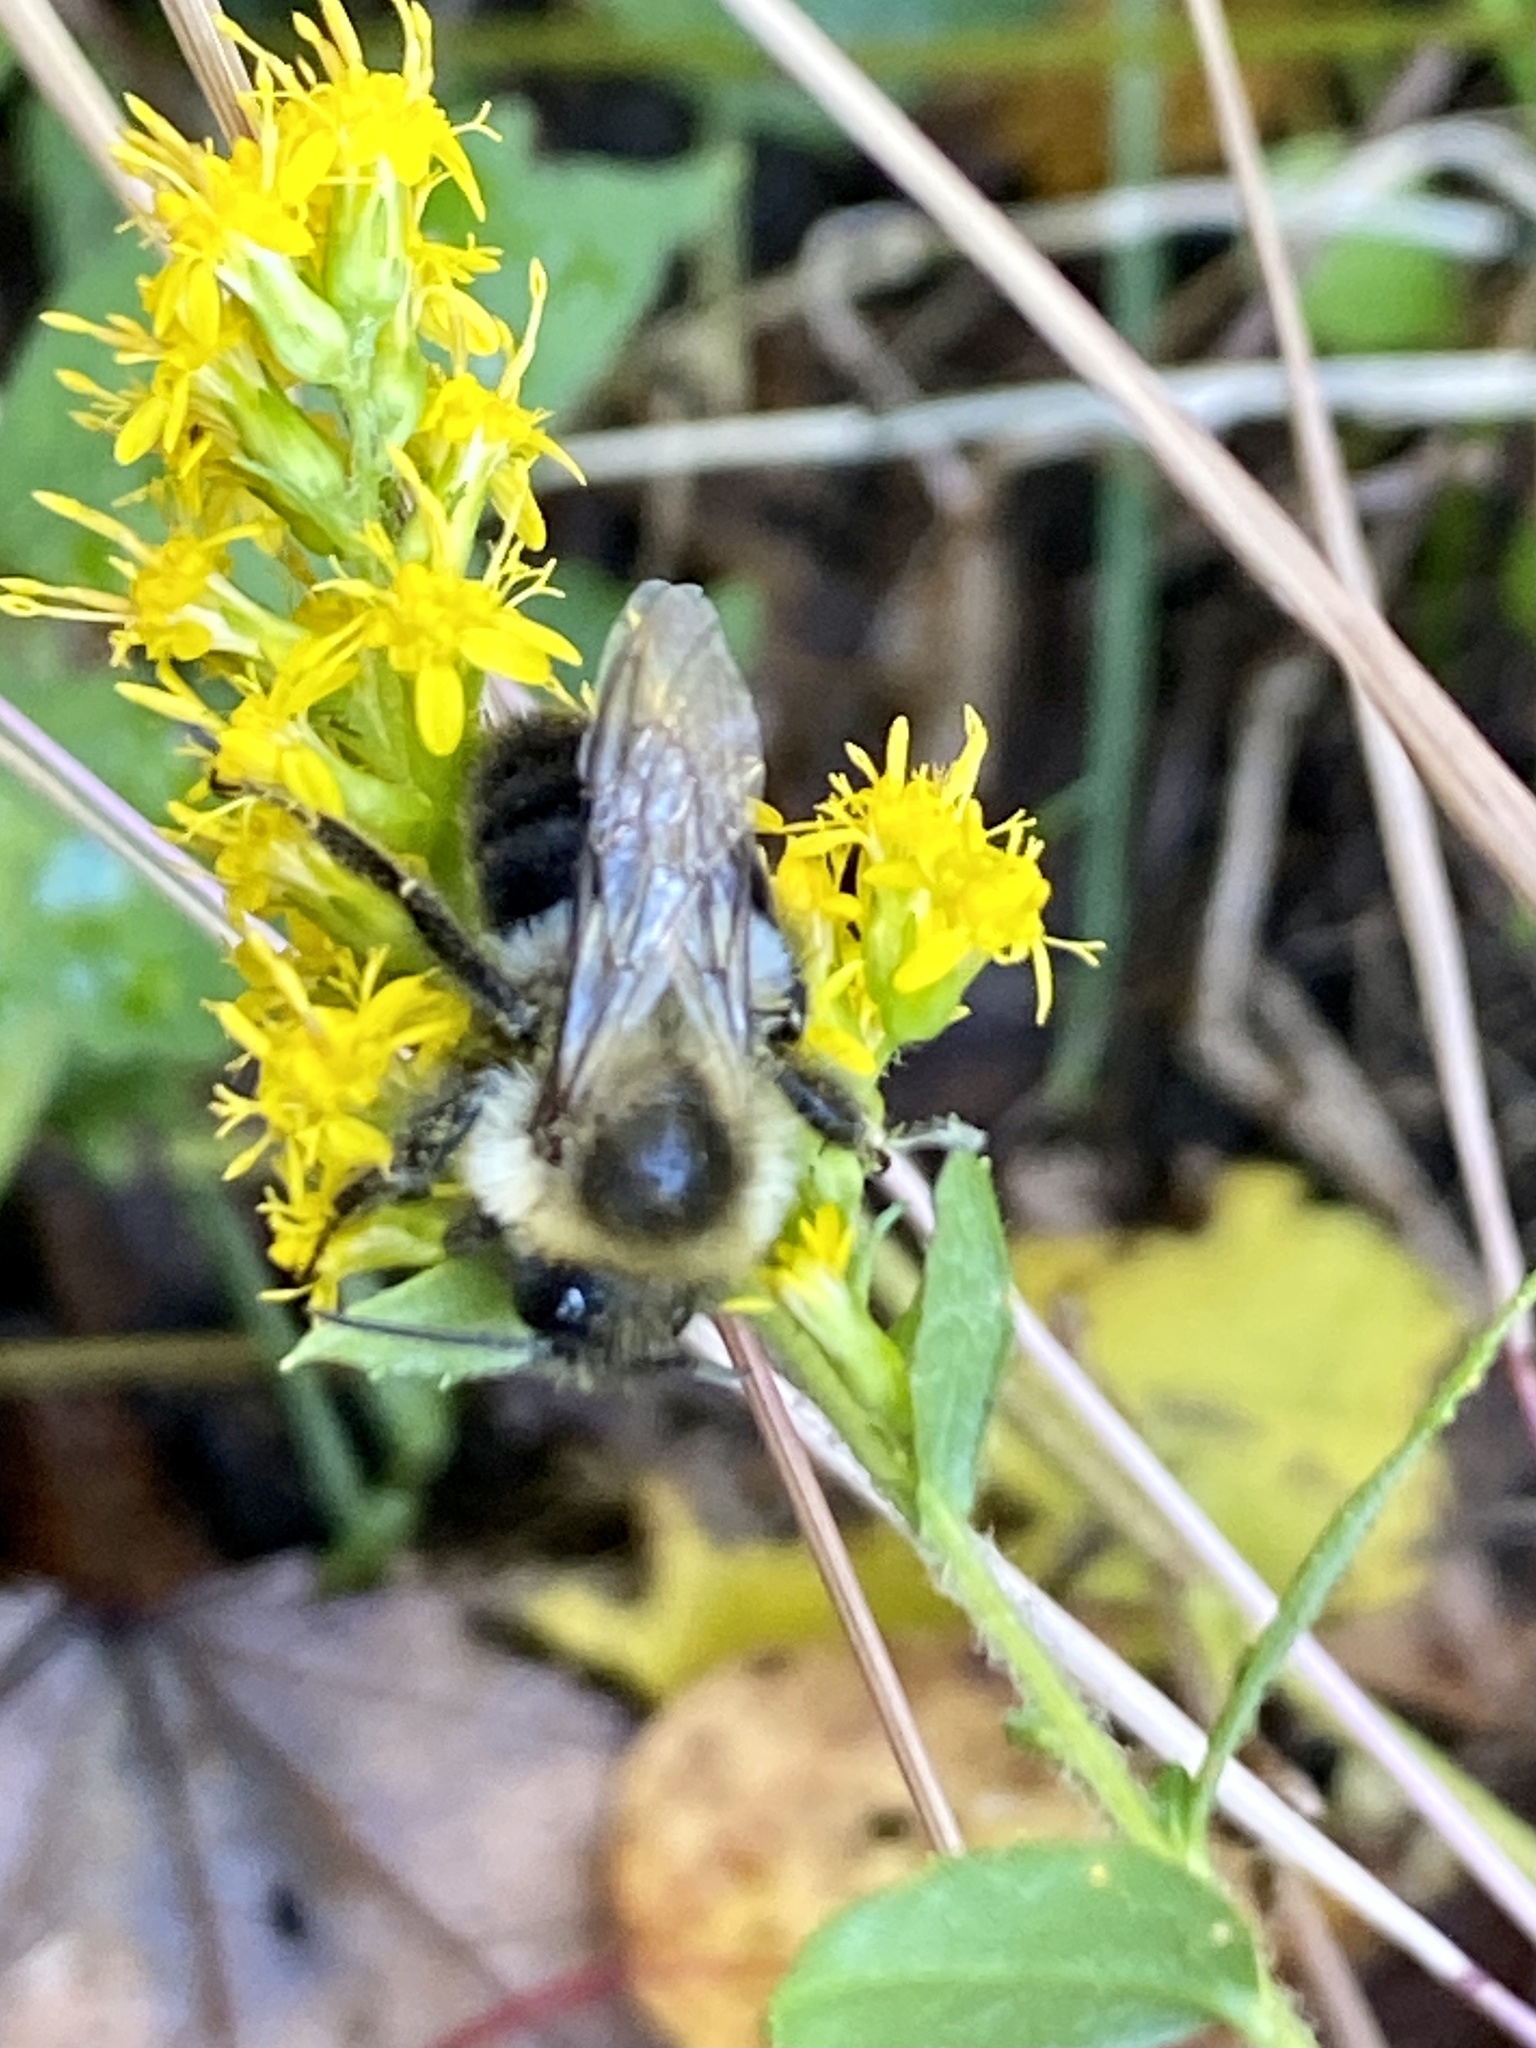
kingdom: Animalia
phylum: Arthropoda
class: Insecta
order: Hymenoptera
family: Apidae
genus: Bombus
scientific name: Bombus impatiens
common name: Common eastern bumble bee
